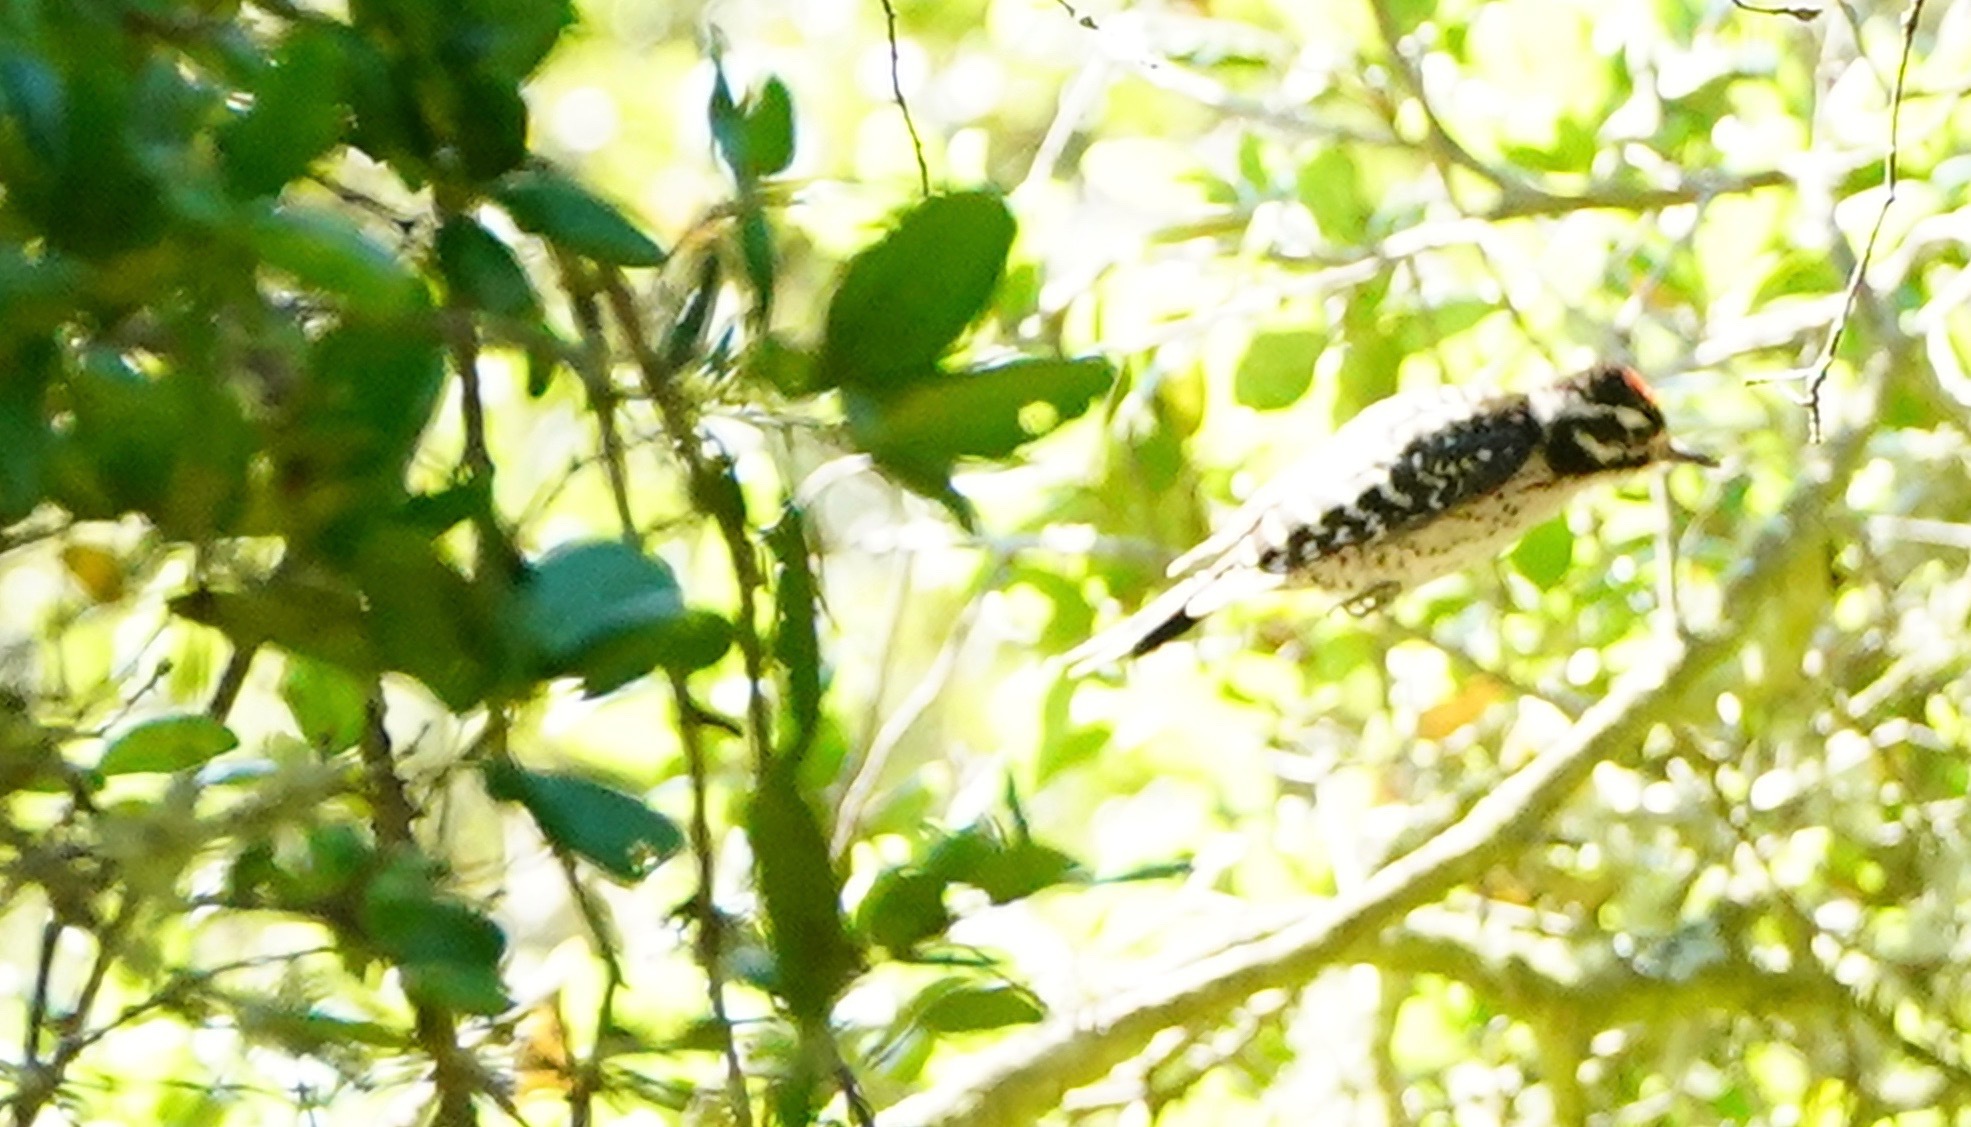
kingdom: Animalia
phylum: Chordata
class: Aves
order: Piciformes
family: Picidae
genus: Dryobates
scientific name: Dryobates nuttallii
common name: Nuttall's woodpecker
